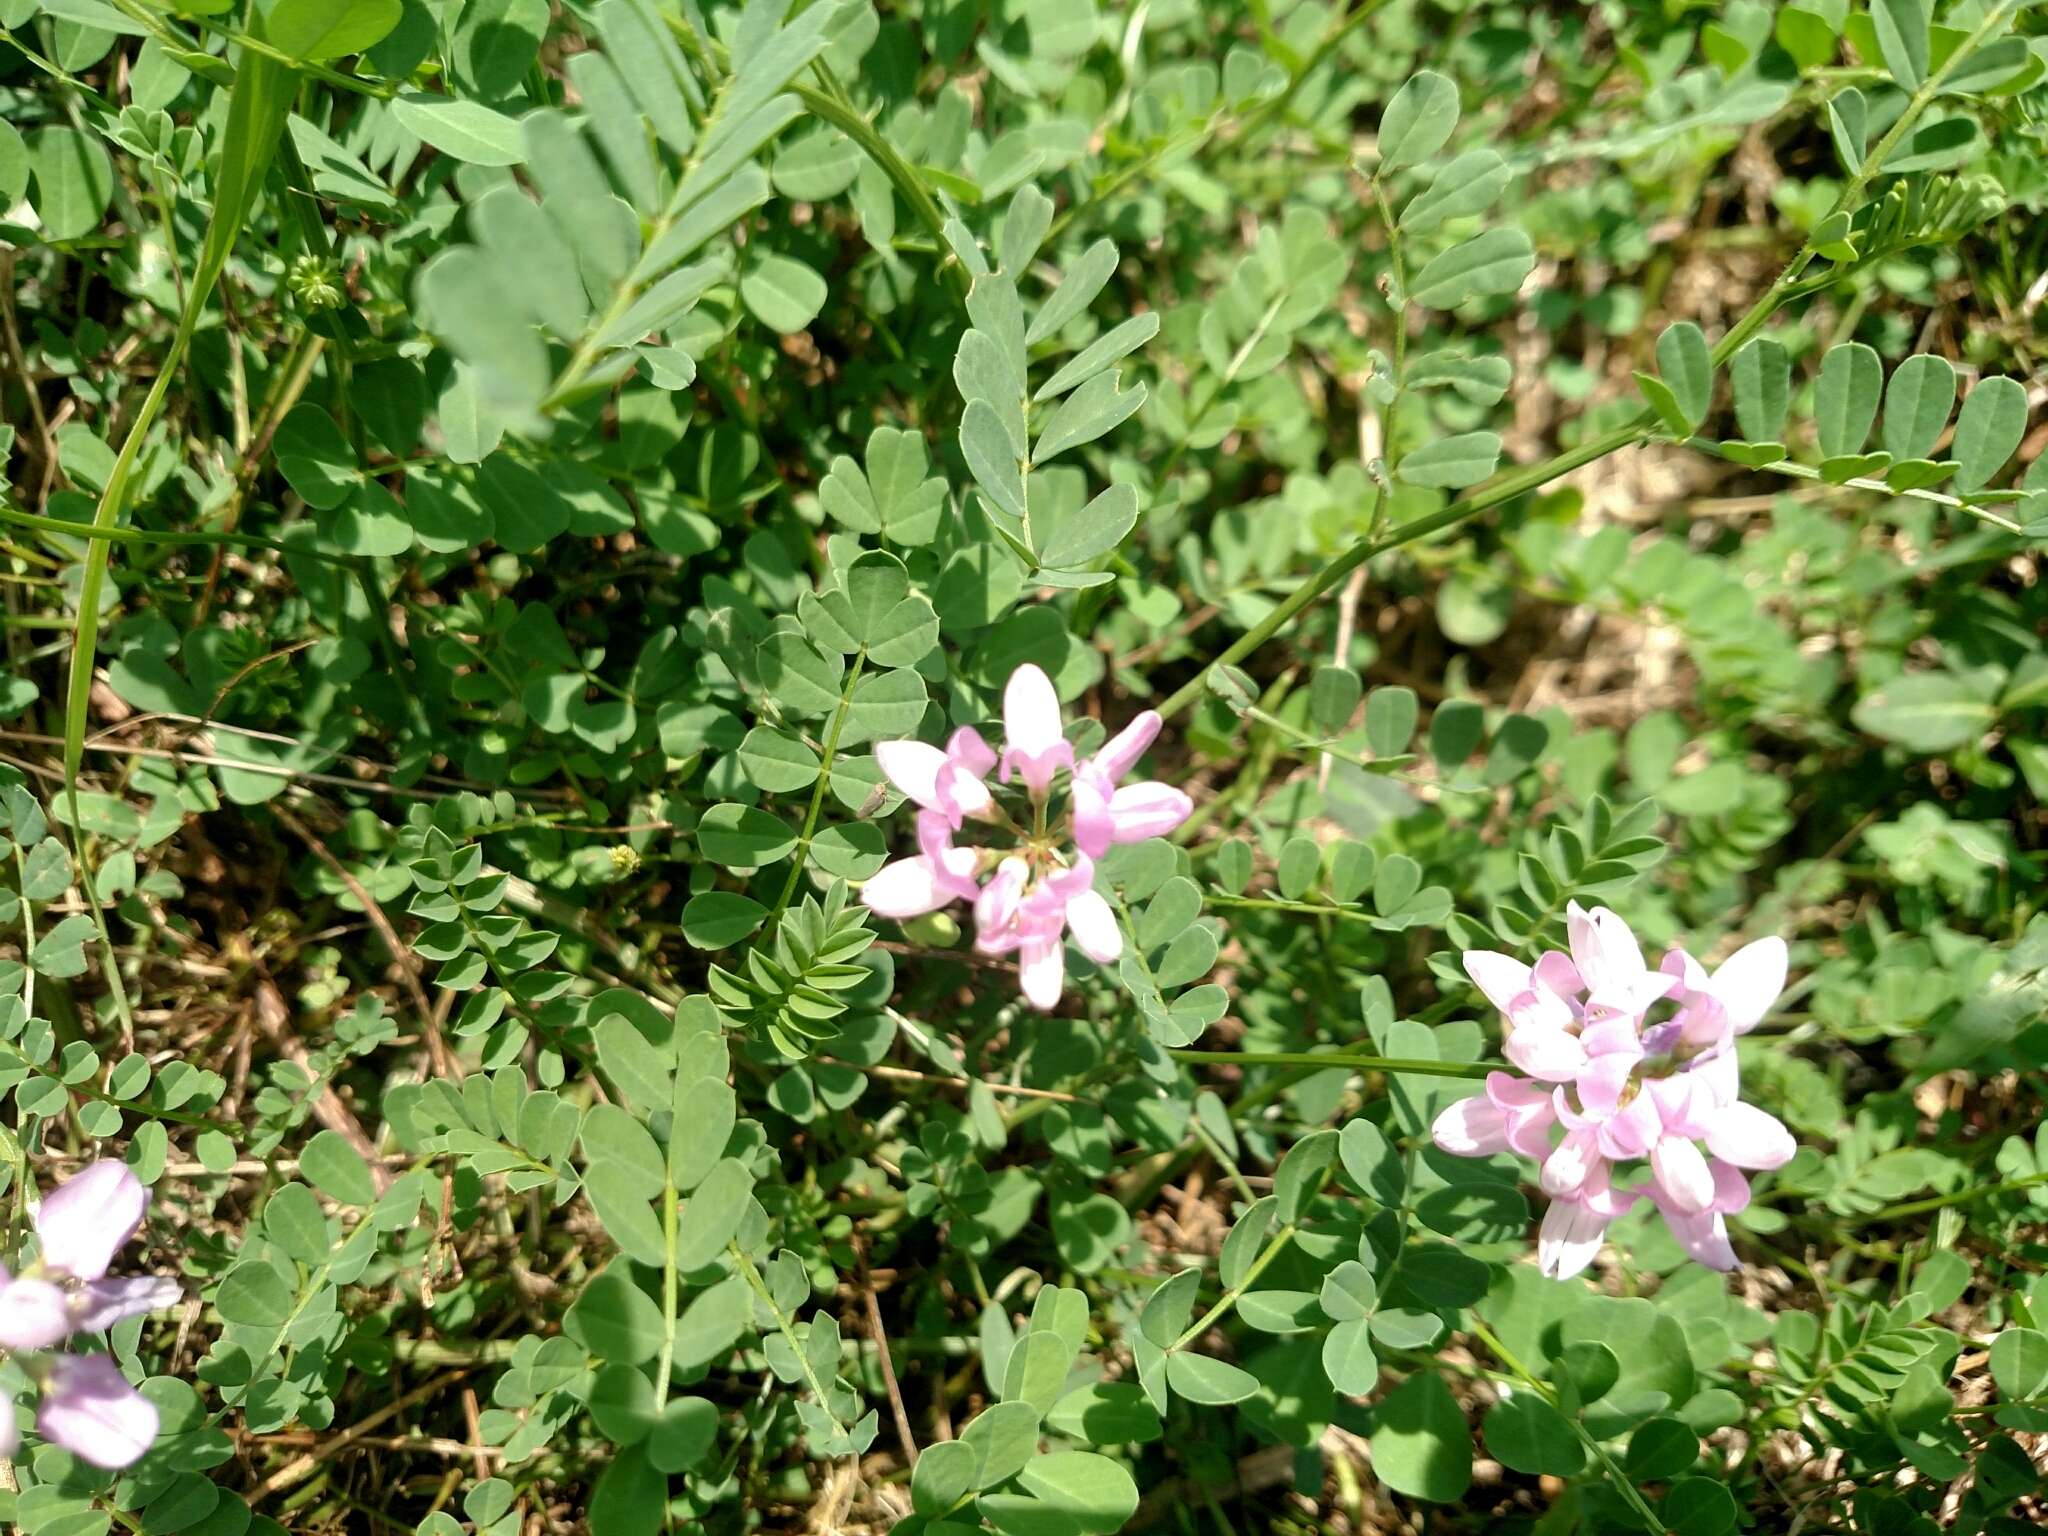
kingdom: Plantae
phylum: Tracheophyta
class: Magnoliopsida
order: Fabales
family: Fabaceae
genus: Coronilla
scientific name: Coronilla varia
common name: Crownvetch
